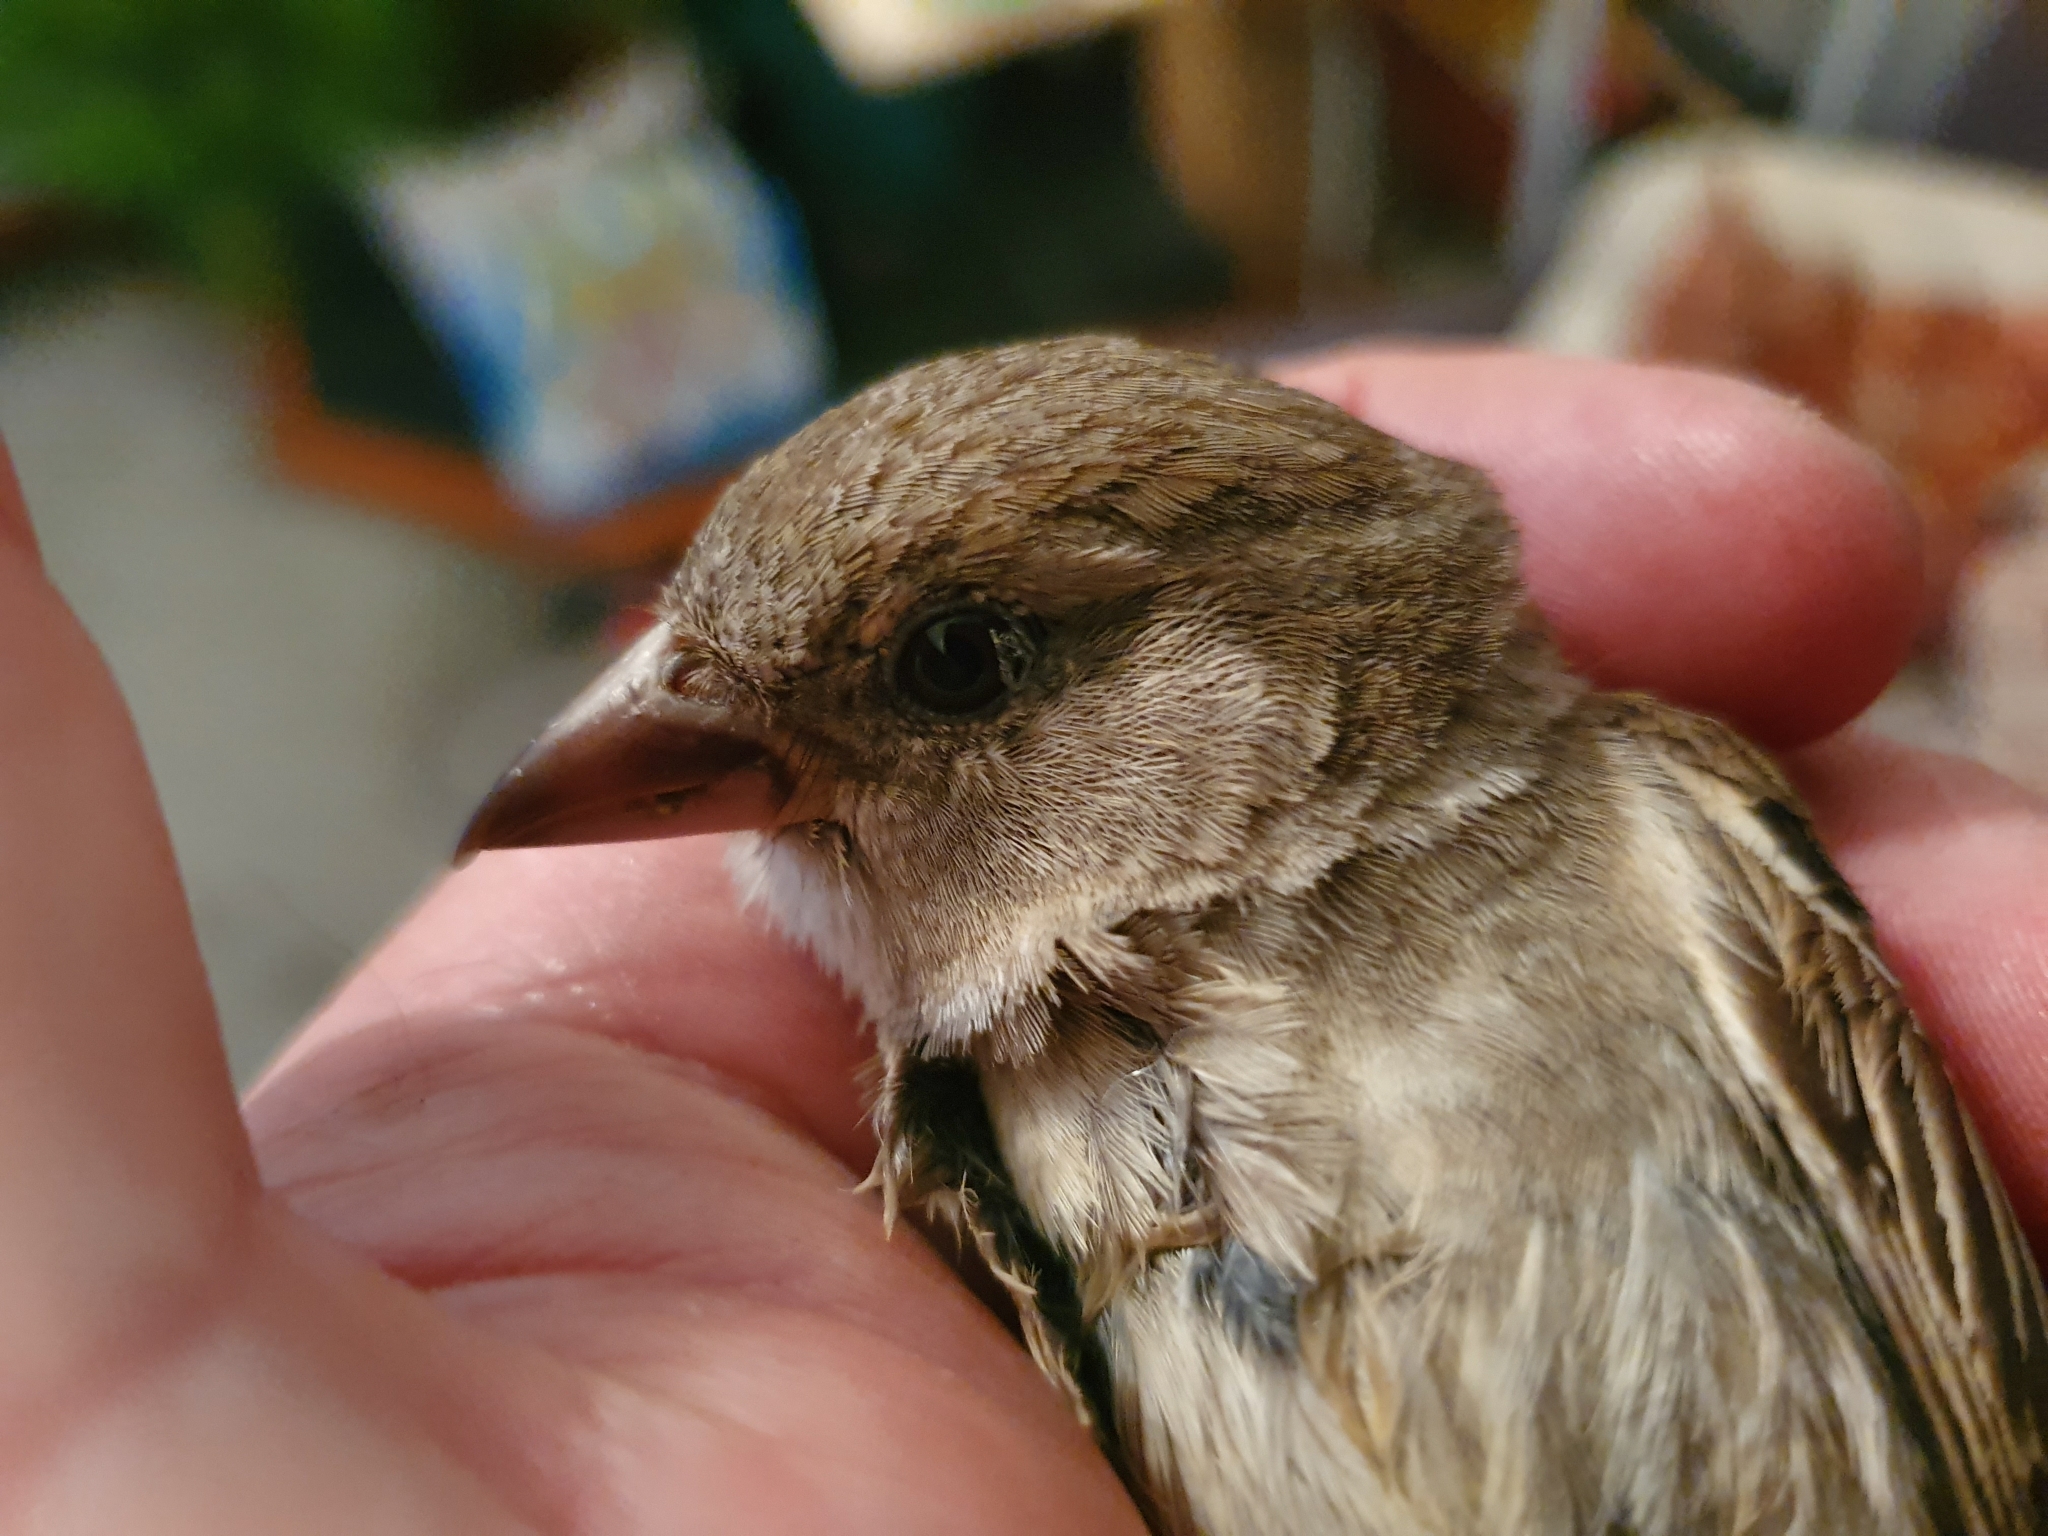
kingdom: Animalia
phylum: Chordata
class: Aves
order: Passeriformes
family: Passeridae
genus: Passer
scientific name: Passer domesticus
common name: House sparrow
